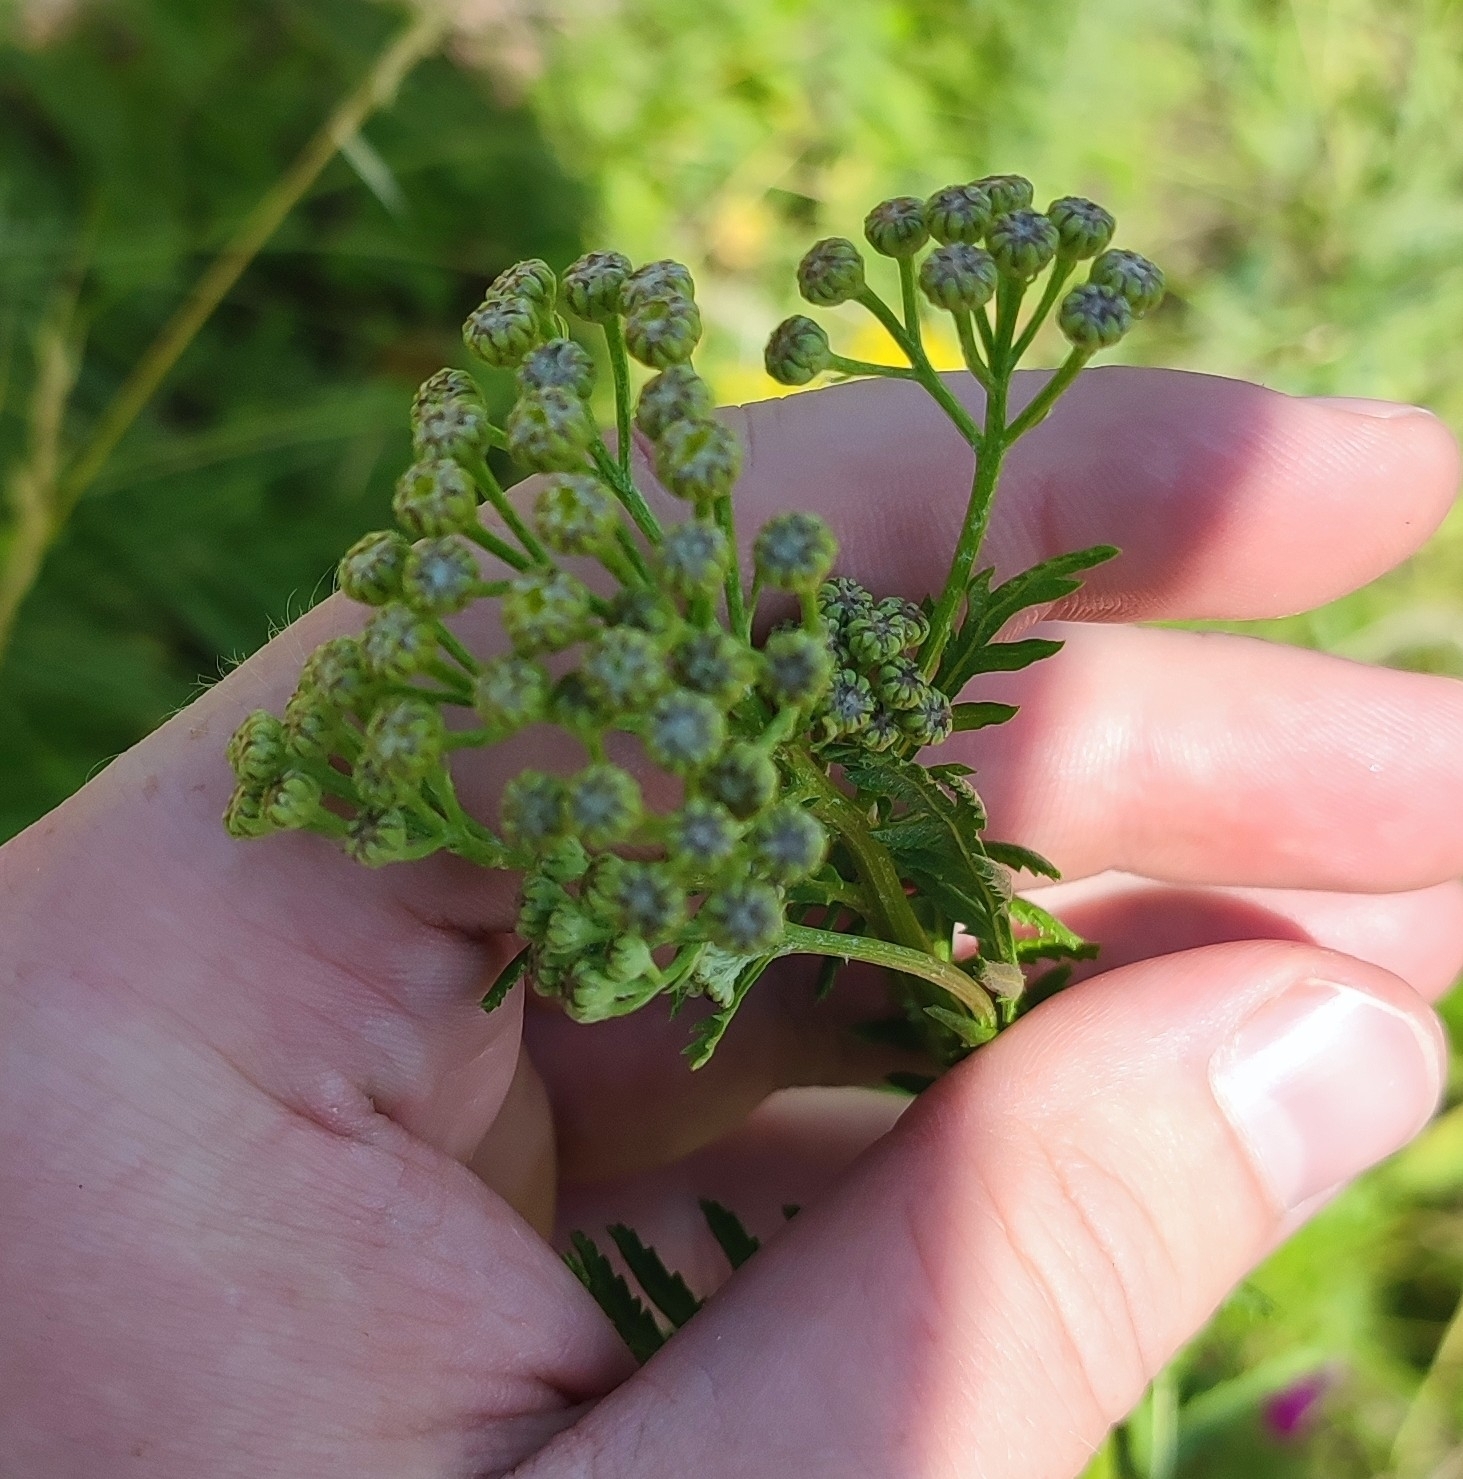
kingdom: Plantae
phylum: Tracheophyta
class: Magnoliopsida
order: Asterales
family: Asteraceae
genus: Tanacetum
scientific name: Tanacetum vulgare
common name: Common tansy
